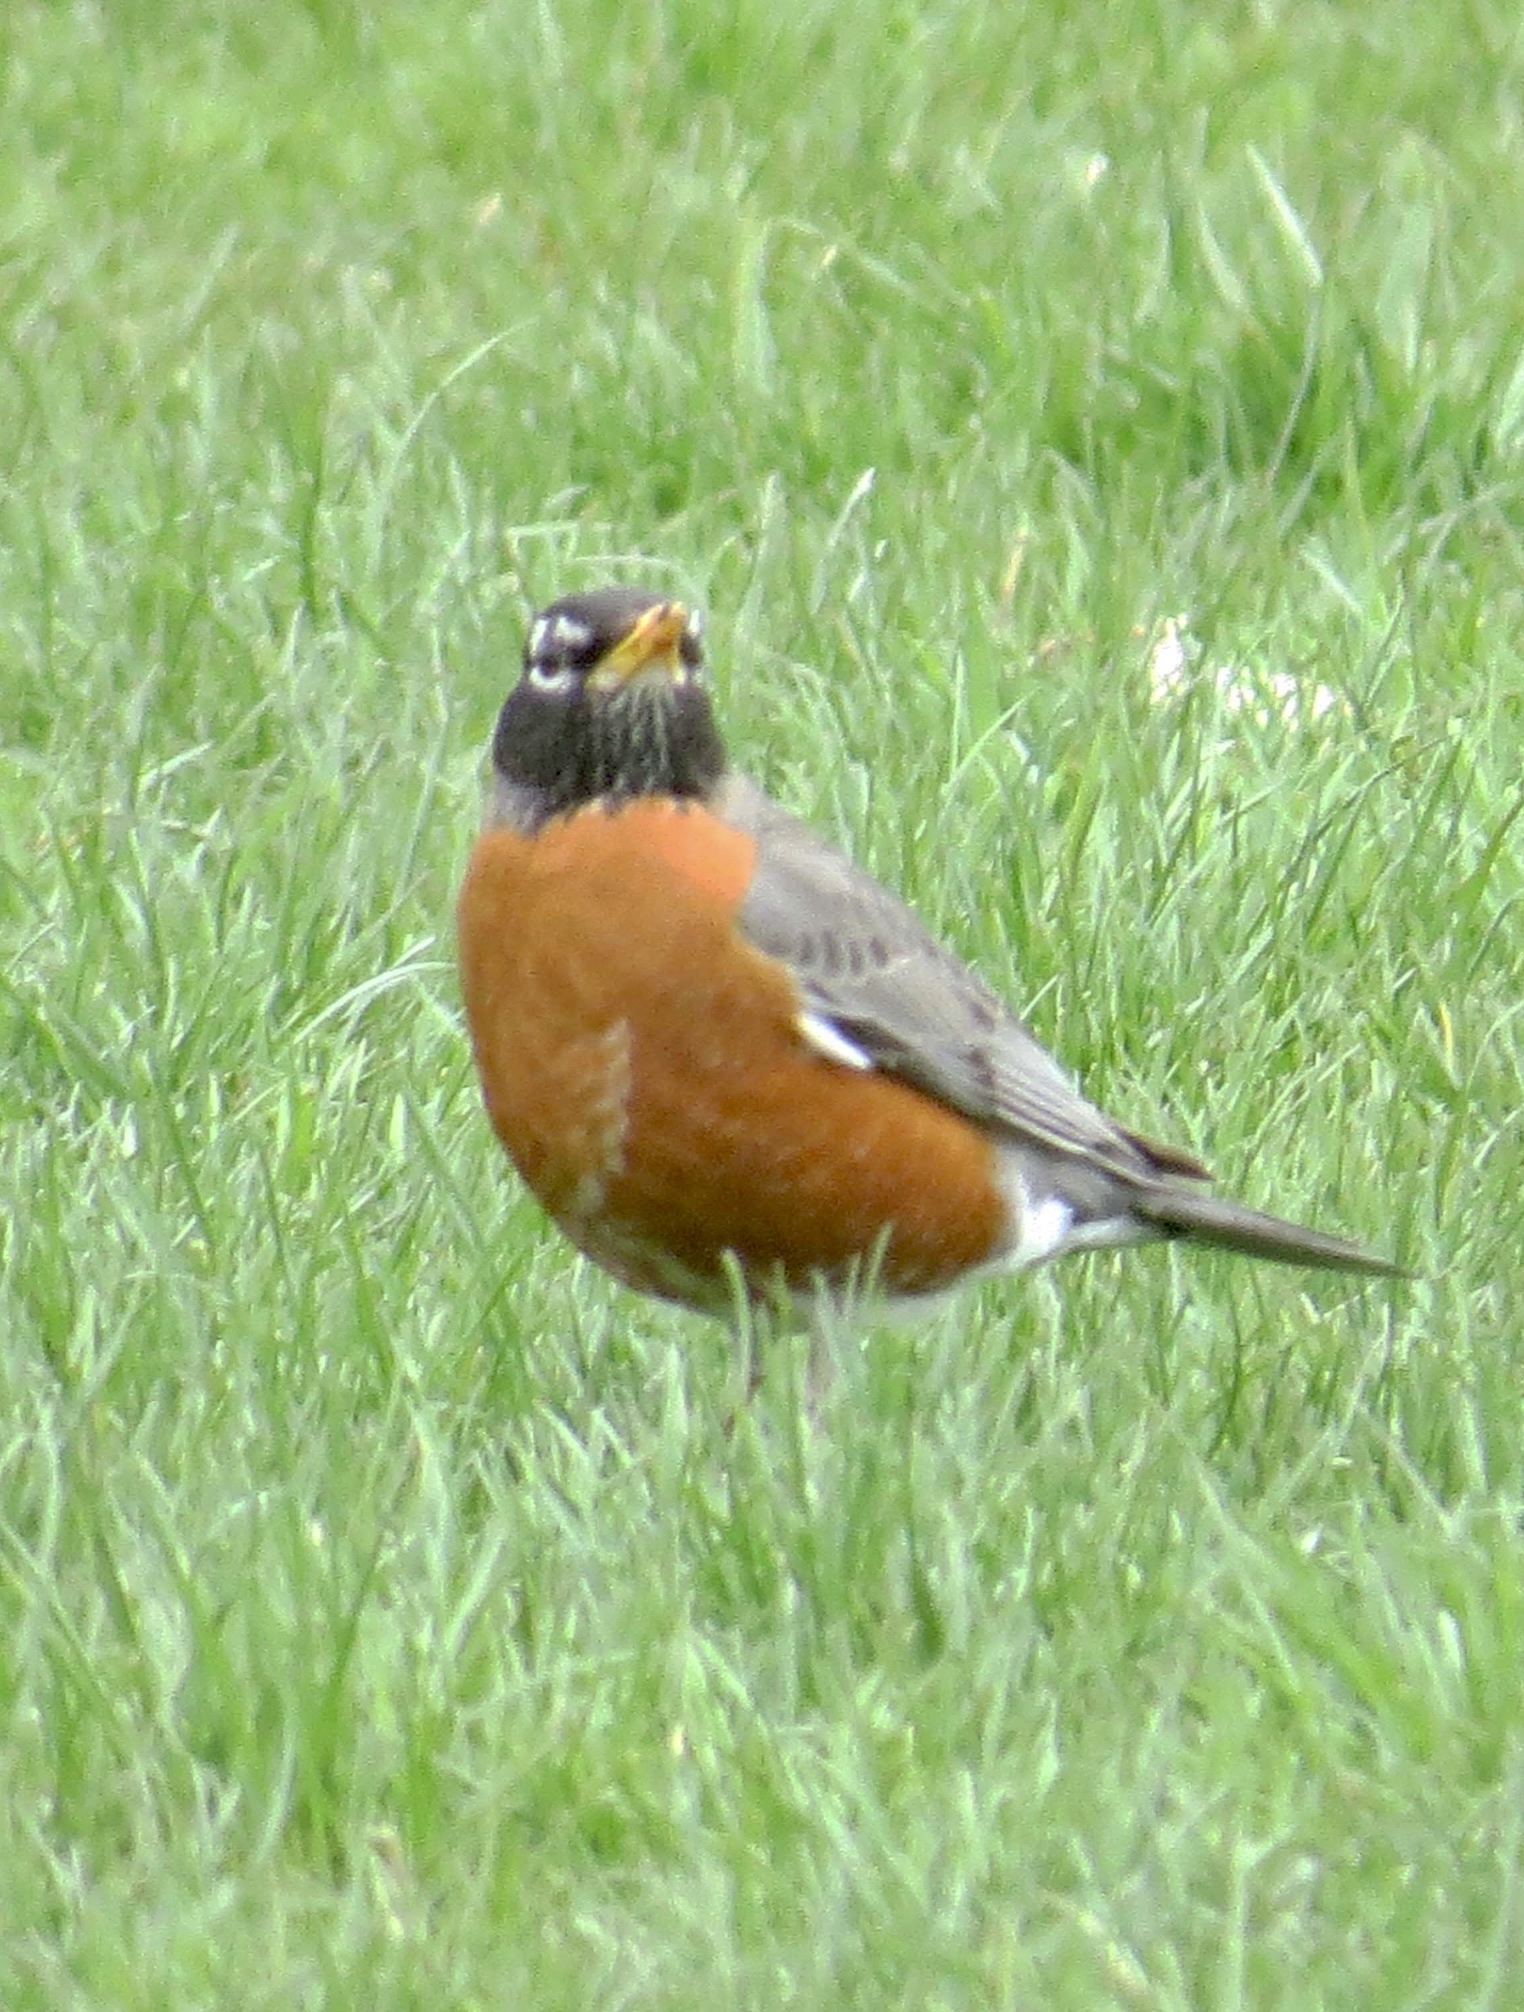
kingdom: Animalia
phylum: Chordata
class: Aves
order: Passeriformes
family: Turdidae
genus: Turdus
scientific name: Turdus migratorius
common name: American robin
